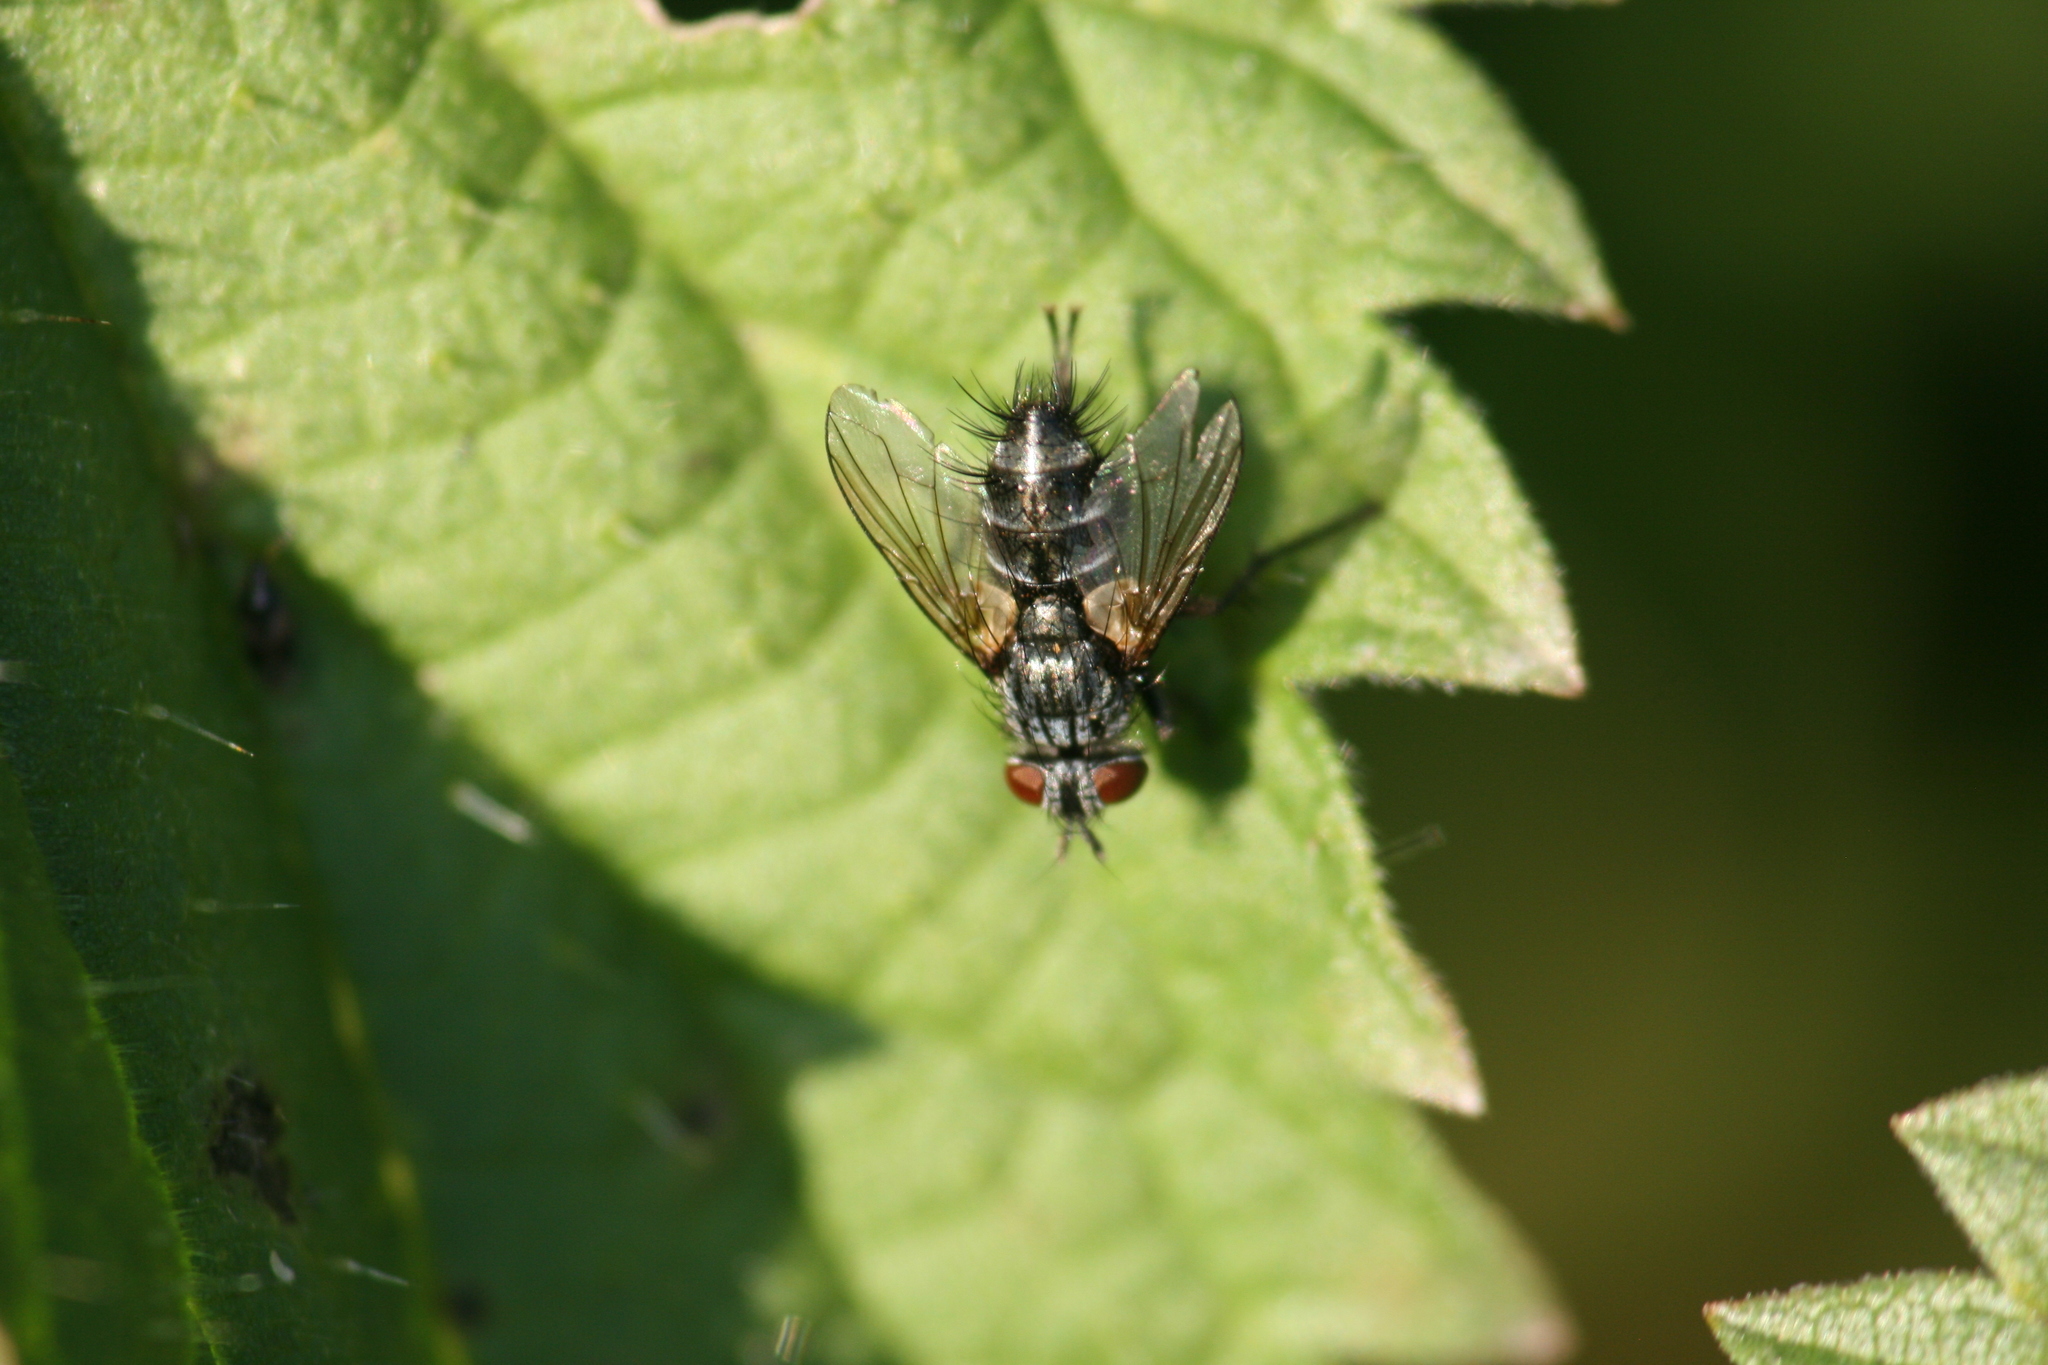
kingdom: Animalia
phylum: Arthropoda
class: Insecta
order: Diptera
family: Tachinidae
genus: Blondelia
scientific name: Blondelia nigripes
